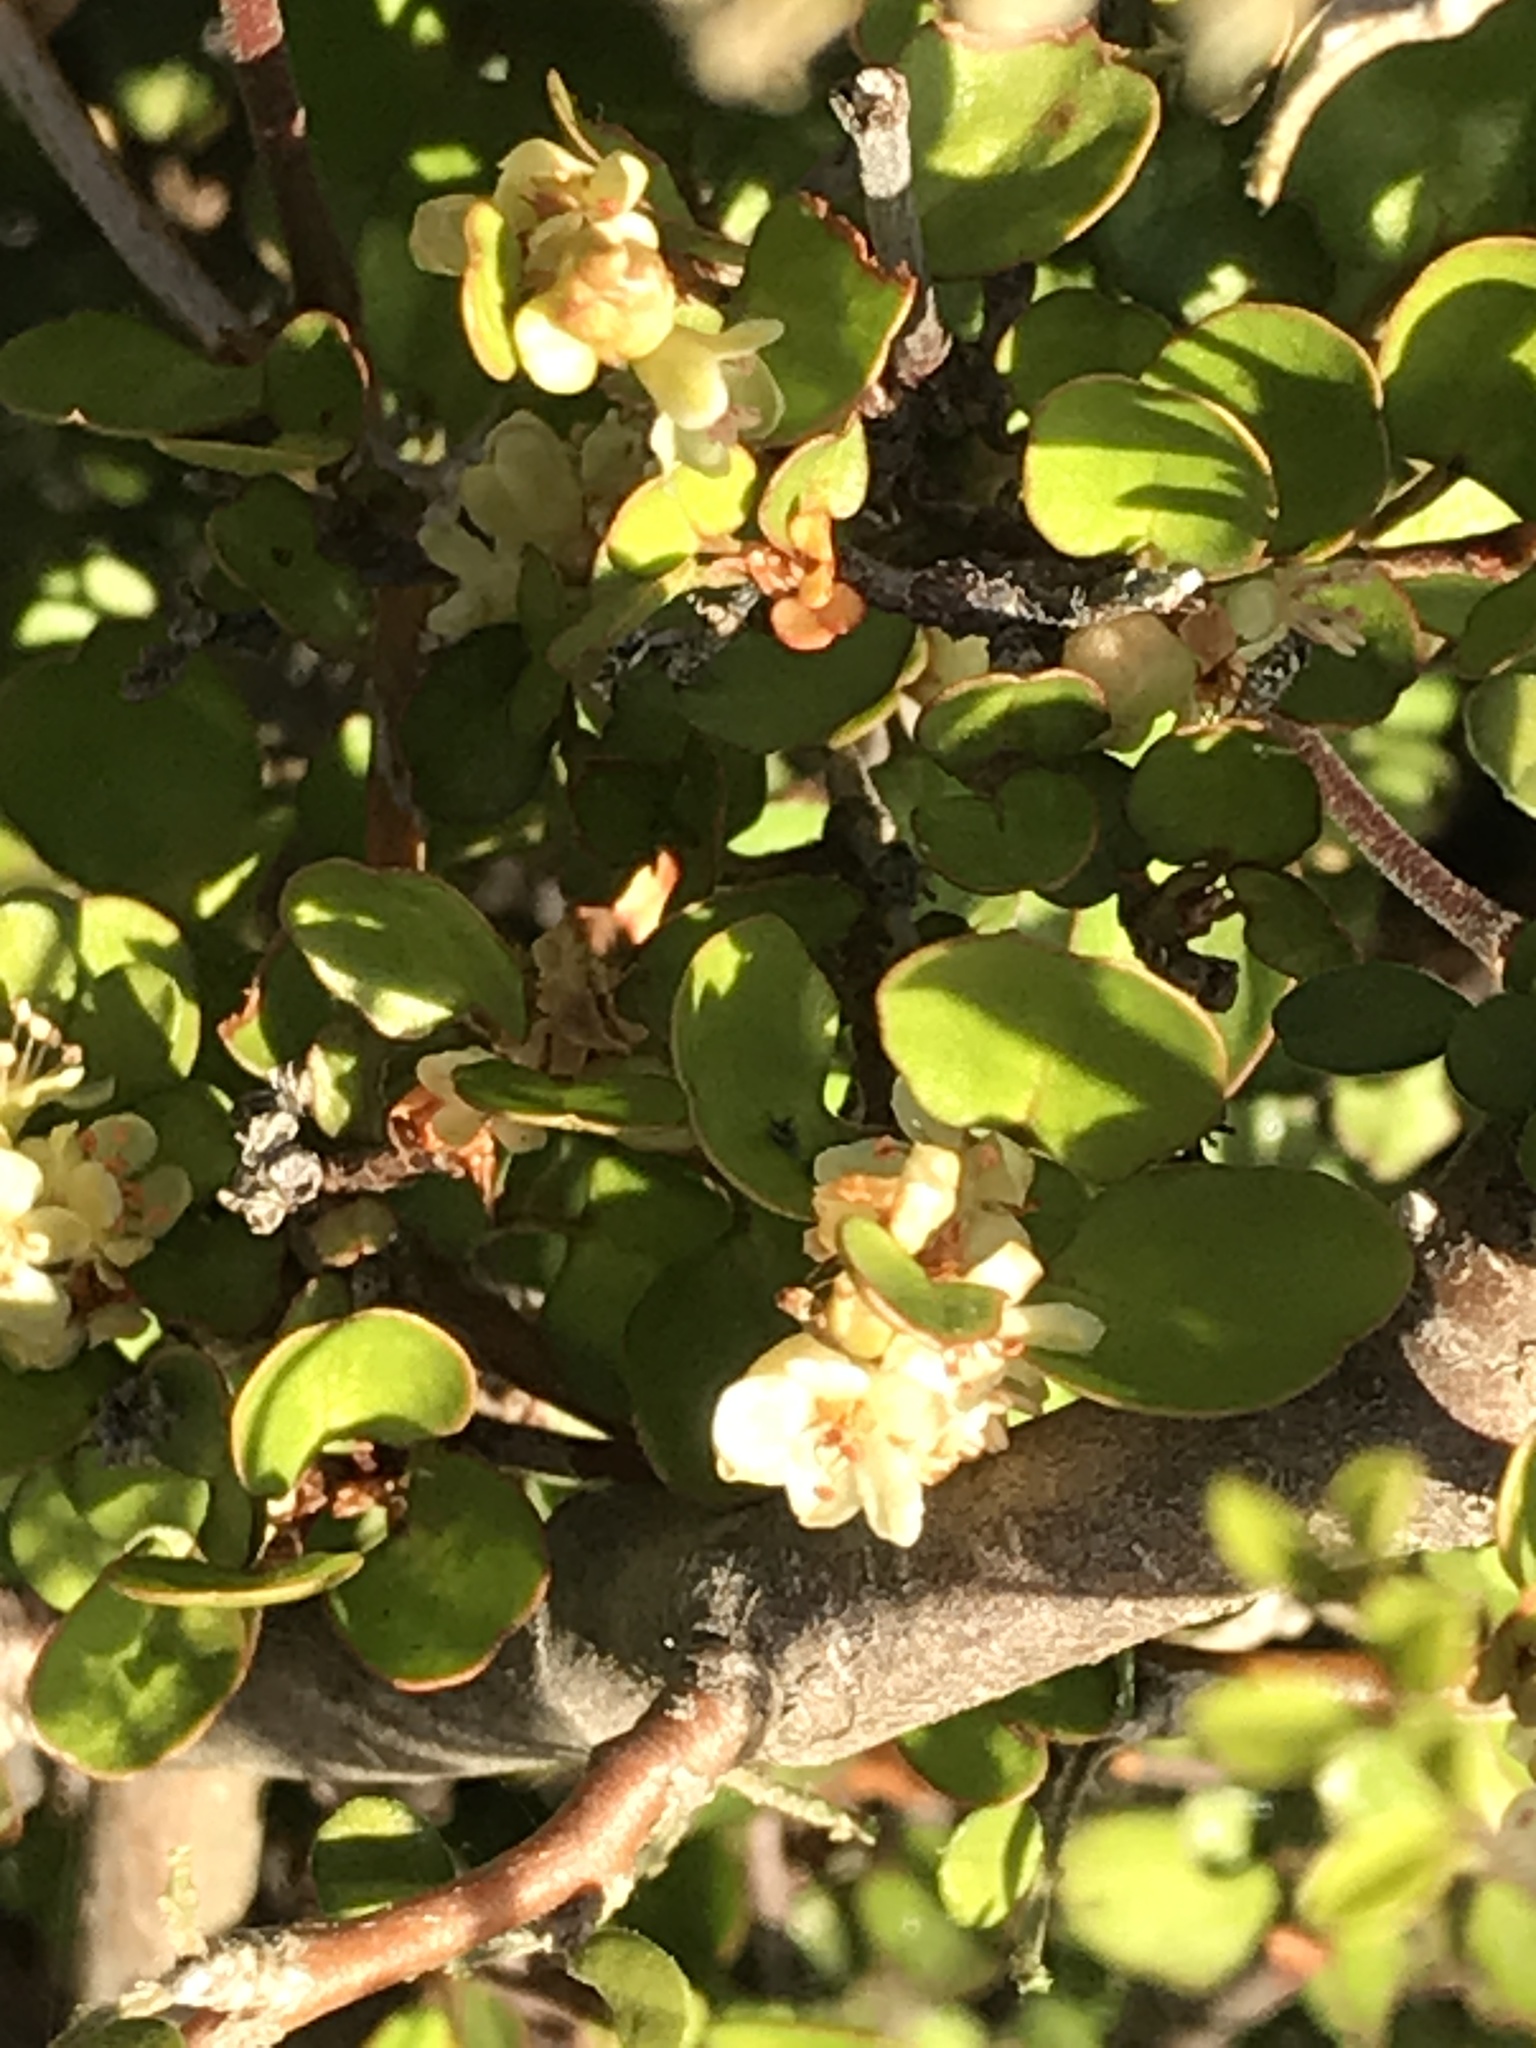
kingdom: Plantae
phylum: Tracheophyta
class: Magnoliopsida
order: Caryophyllales
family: Polygonaceae
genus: Muehlenbeckia
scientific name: Muehlenbeckia complexa
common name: Wireplant
